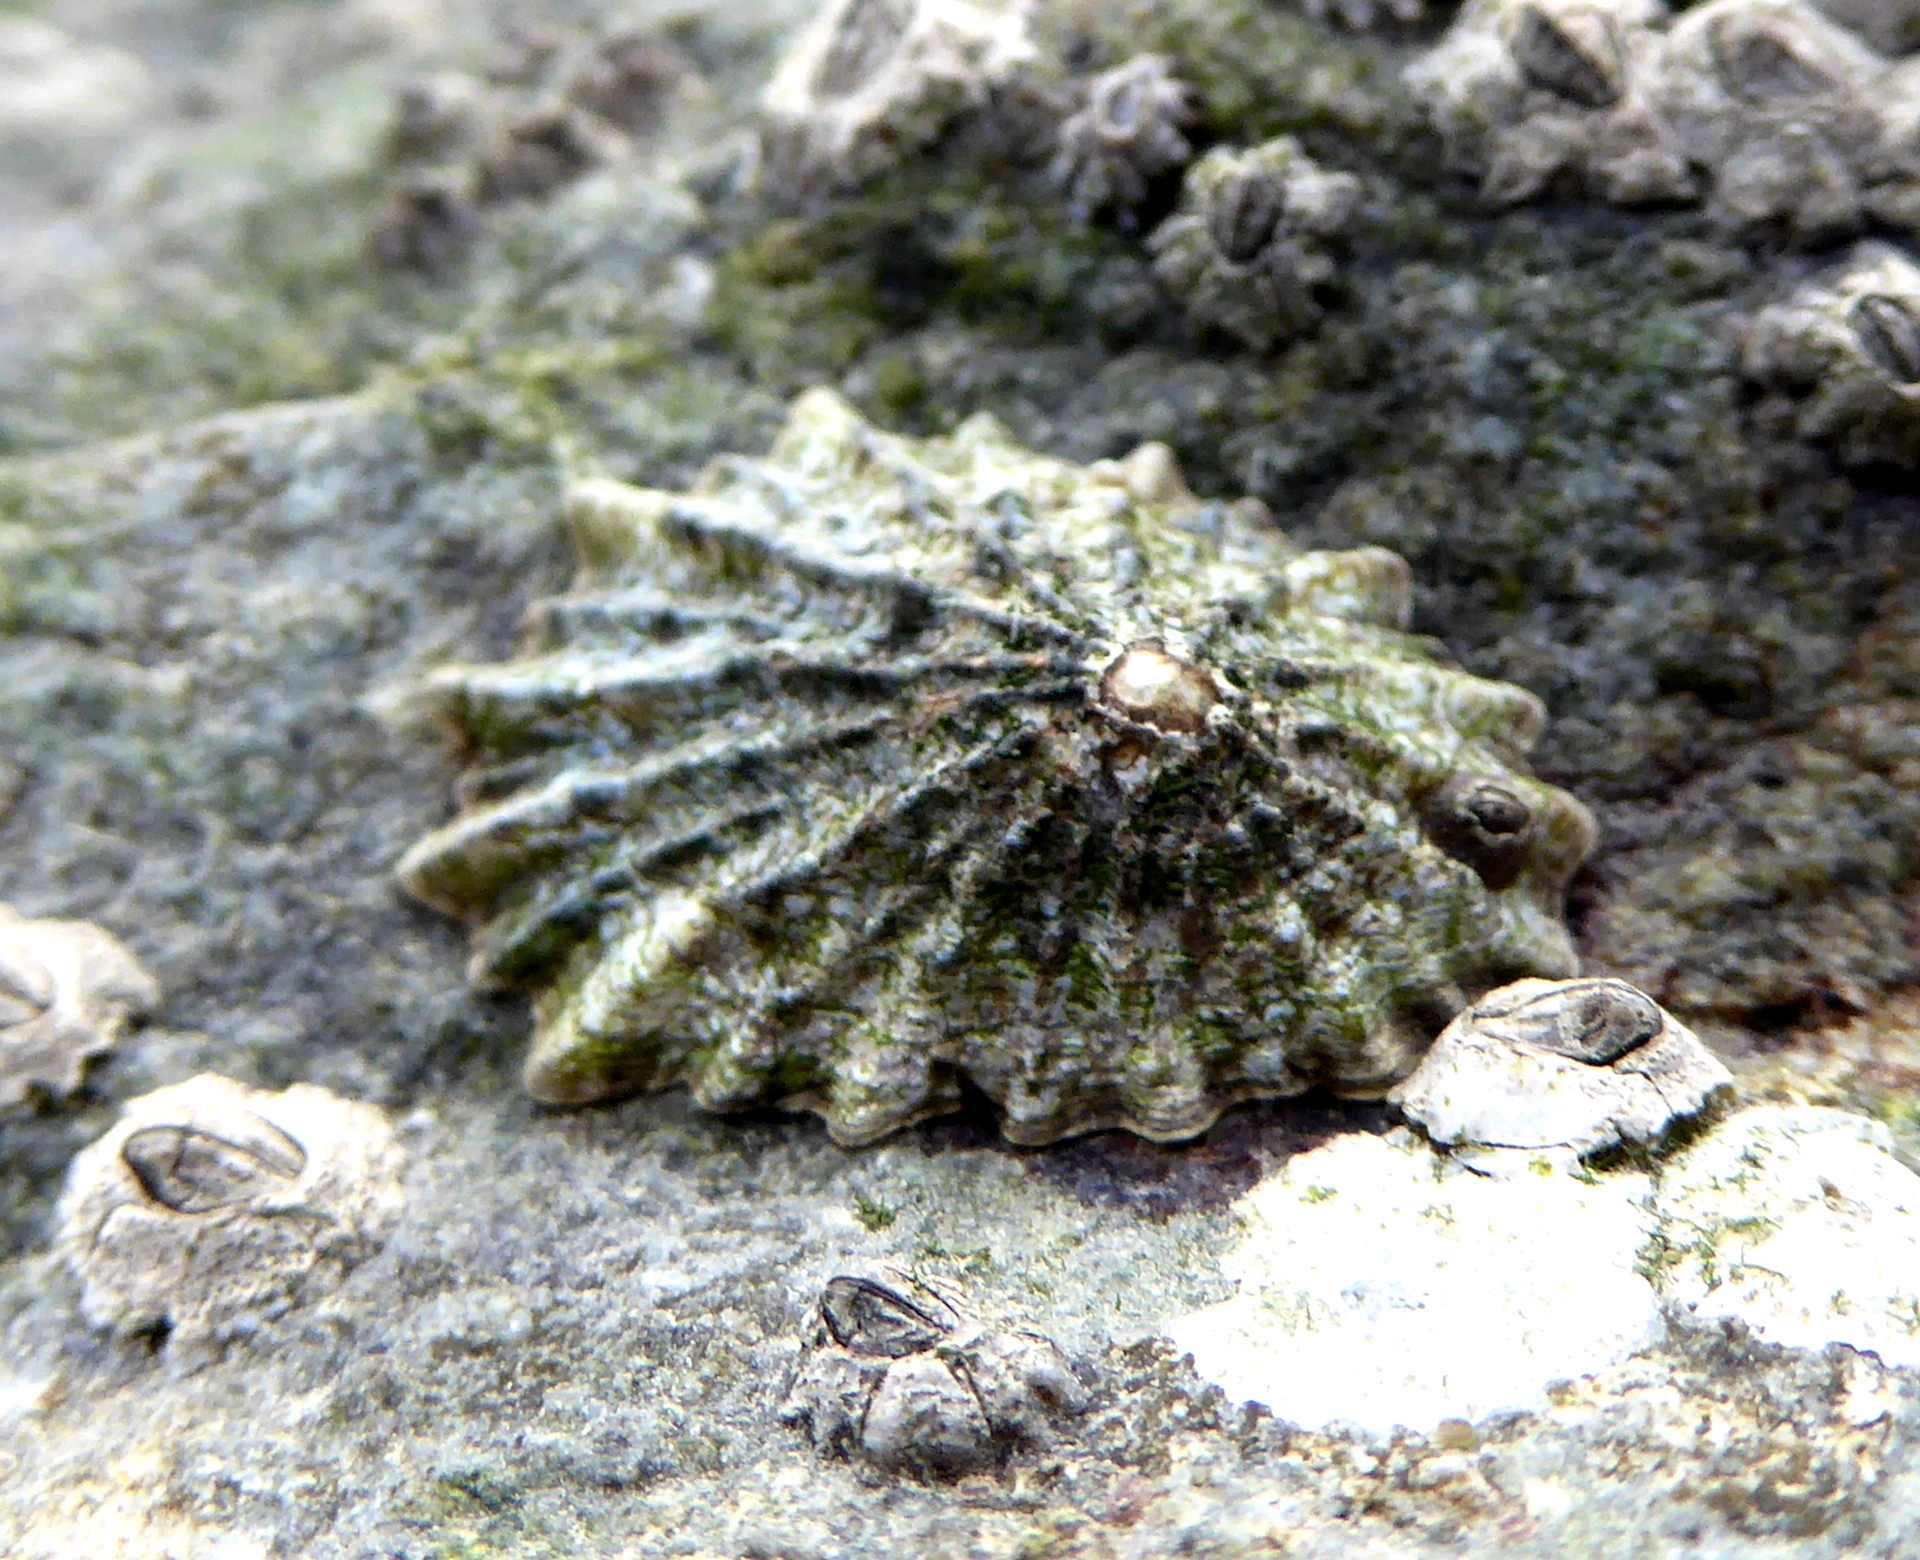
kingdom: Animalia
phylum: Mollusca
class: Gastropoda
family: Lottiidae
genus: Lottia
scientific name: Lottia scabra
